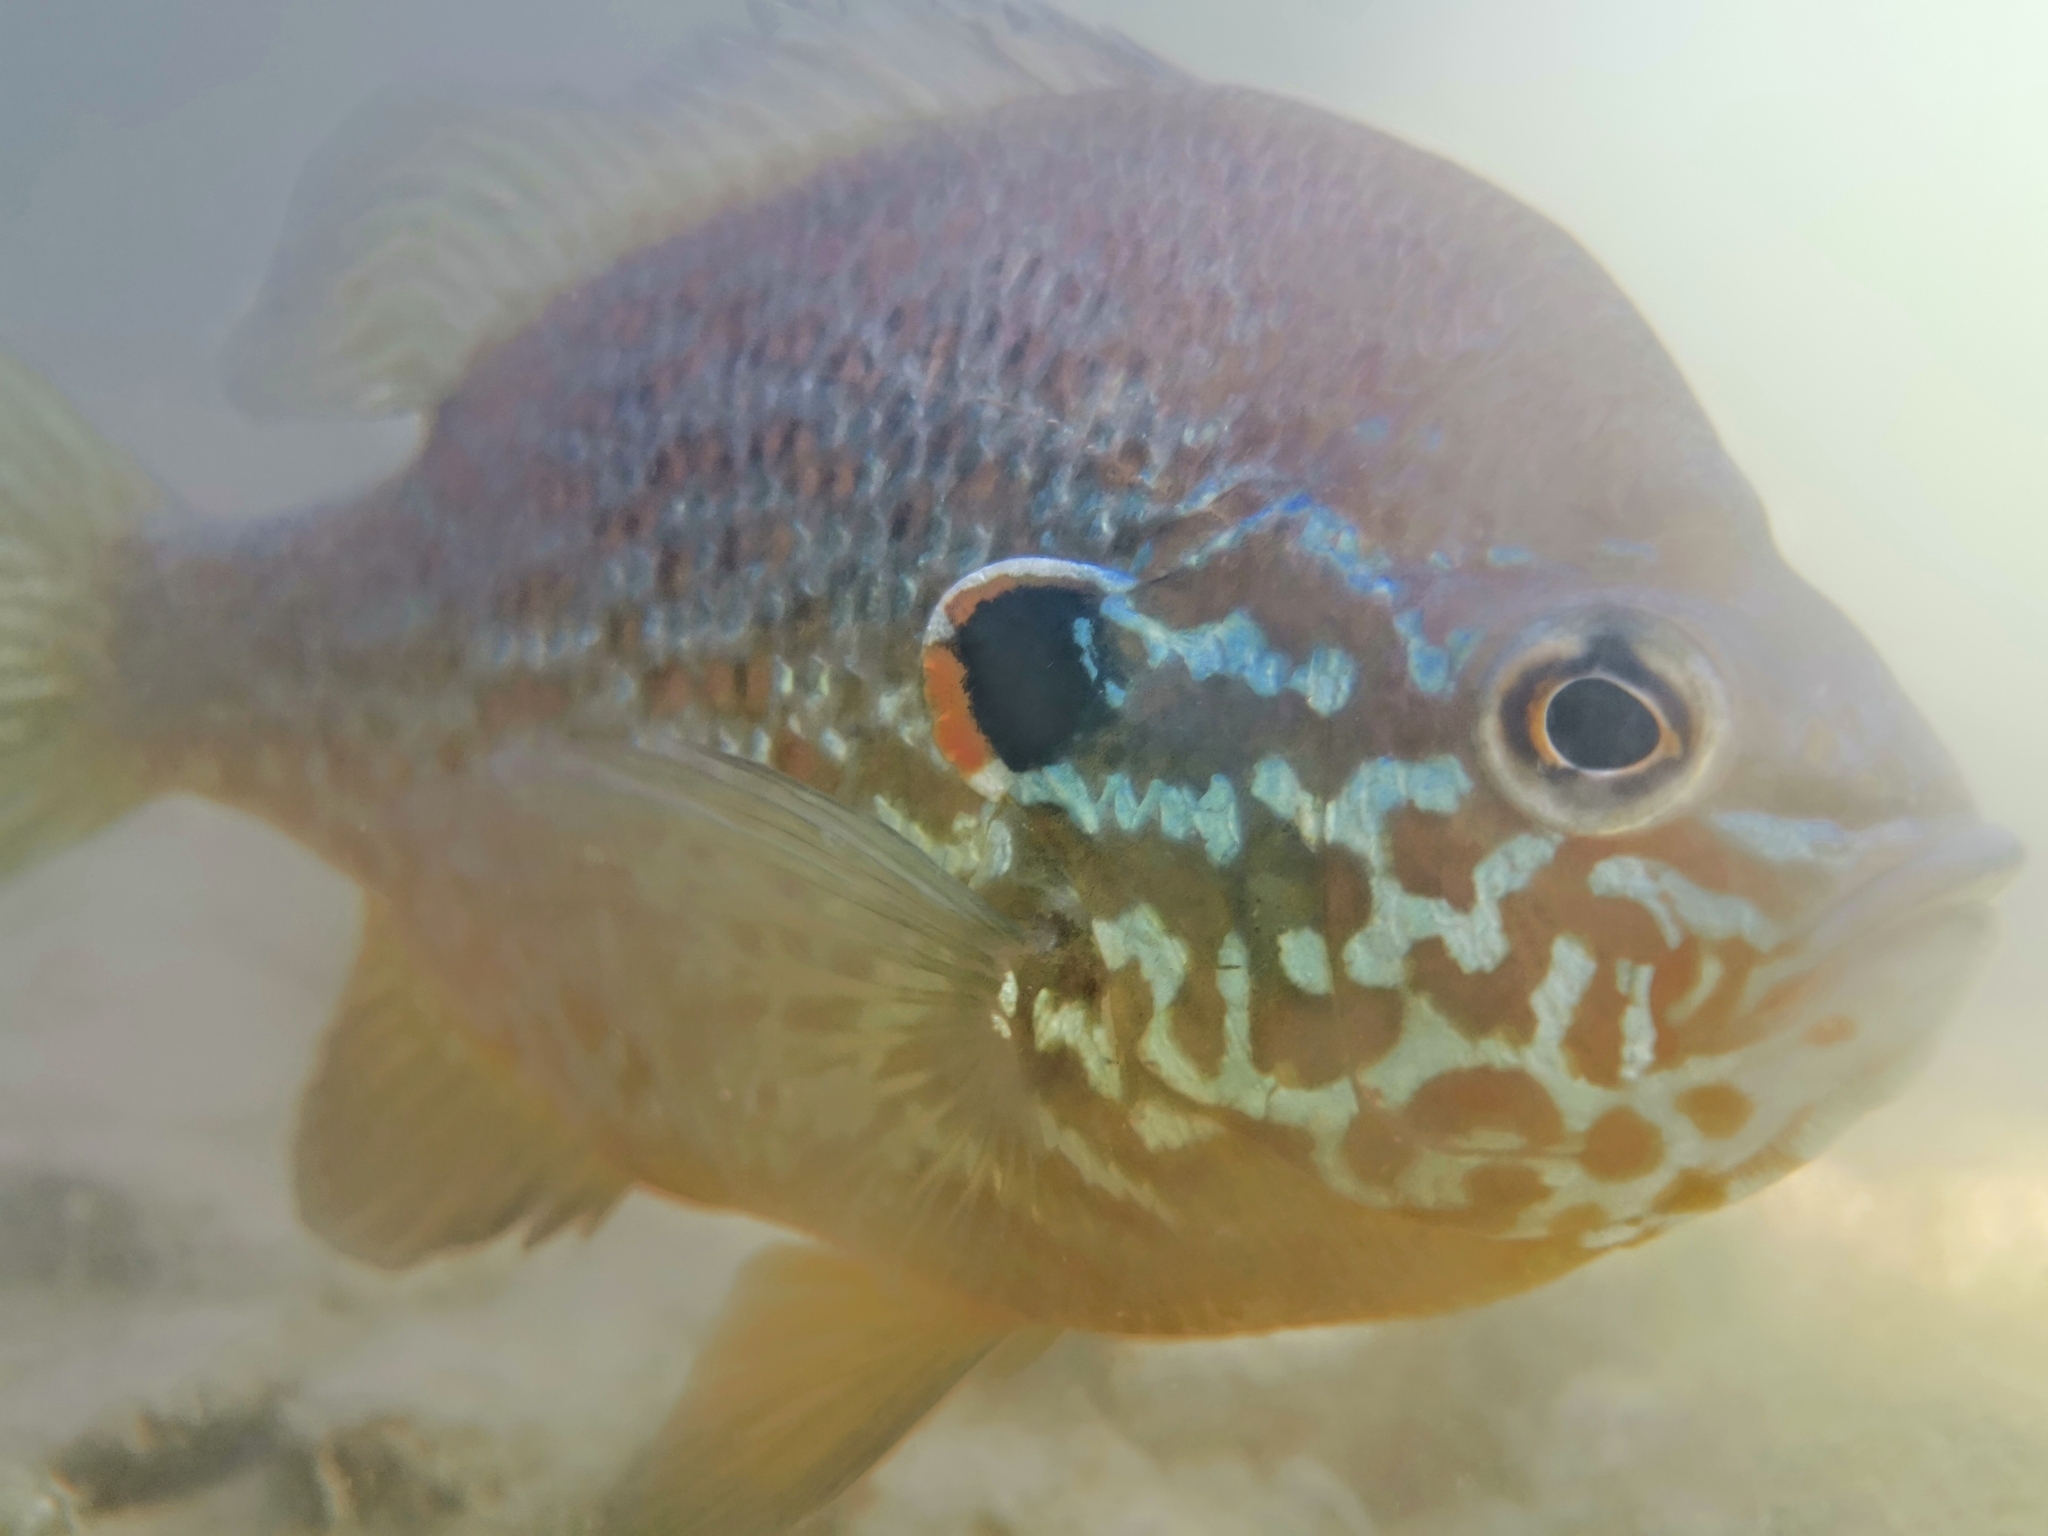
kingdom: Animalia
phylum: Chordata
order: Perciformes
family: Centrarchidae
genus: Lepomis
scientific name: Lepomis gibbosus
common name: Pumpkinseed
